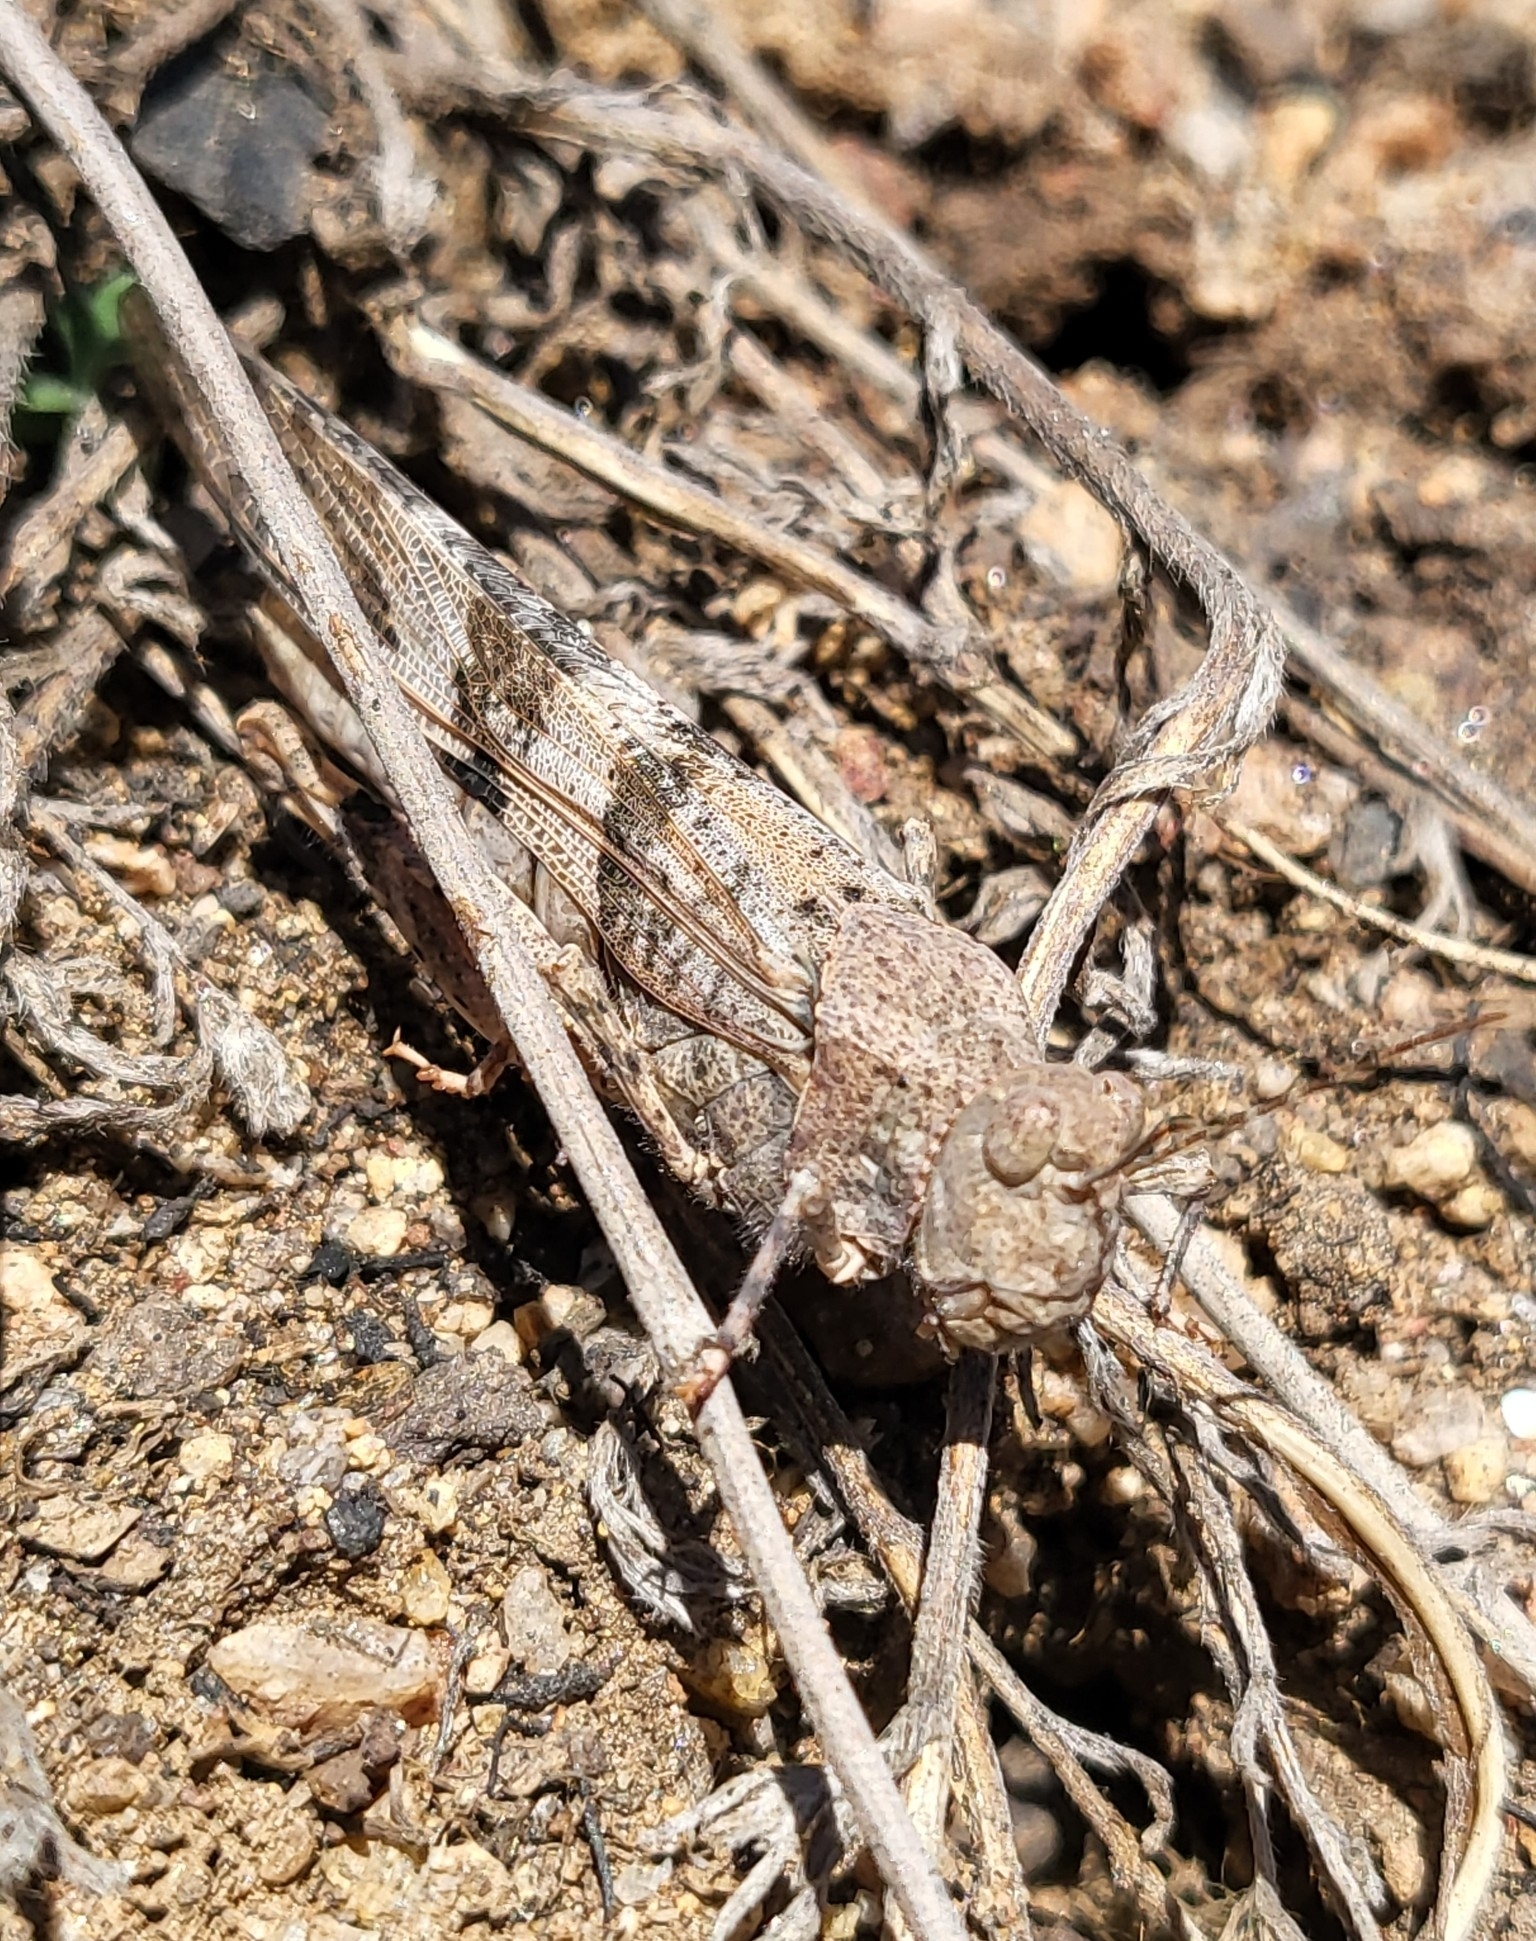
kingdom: Animalia
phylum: Arthropoda
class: Insecta
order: Orthoptera
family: Acrididae
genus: Trimerotropis
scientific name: Trimerotropis pallidipennis
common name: Pallid-winged grasshopper
